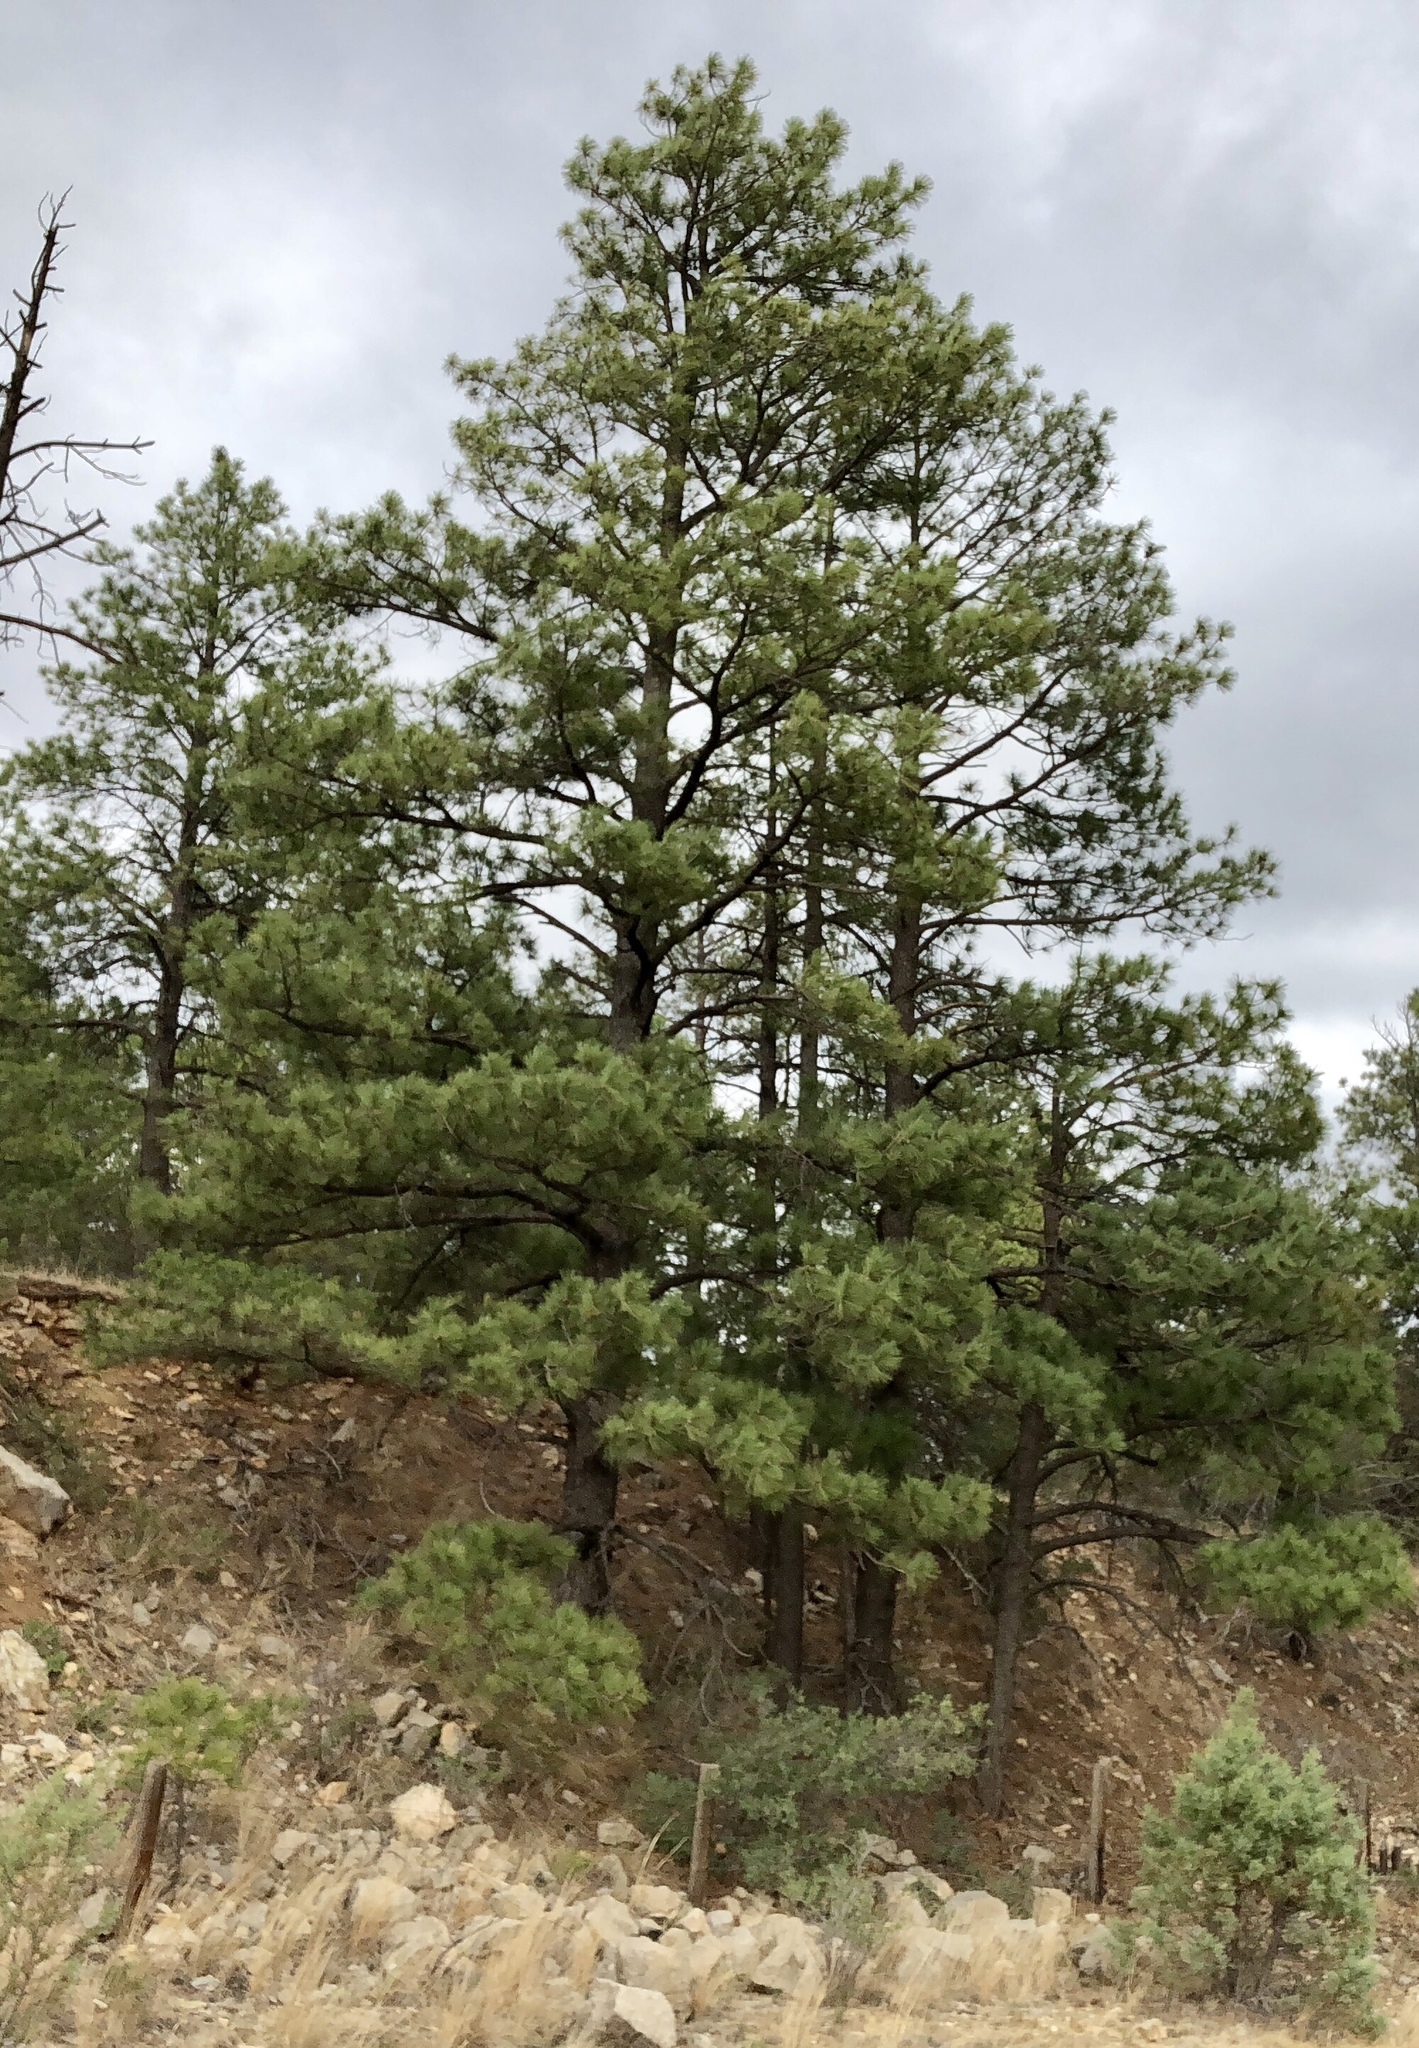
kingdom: Plantae
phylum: Tracheophyta
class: Pinopsida
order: Pinales
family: Pinaceae
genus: Pinus
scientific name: Pinus ponderosa
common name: Western yellow-pine
